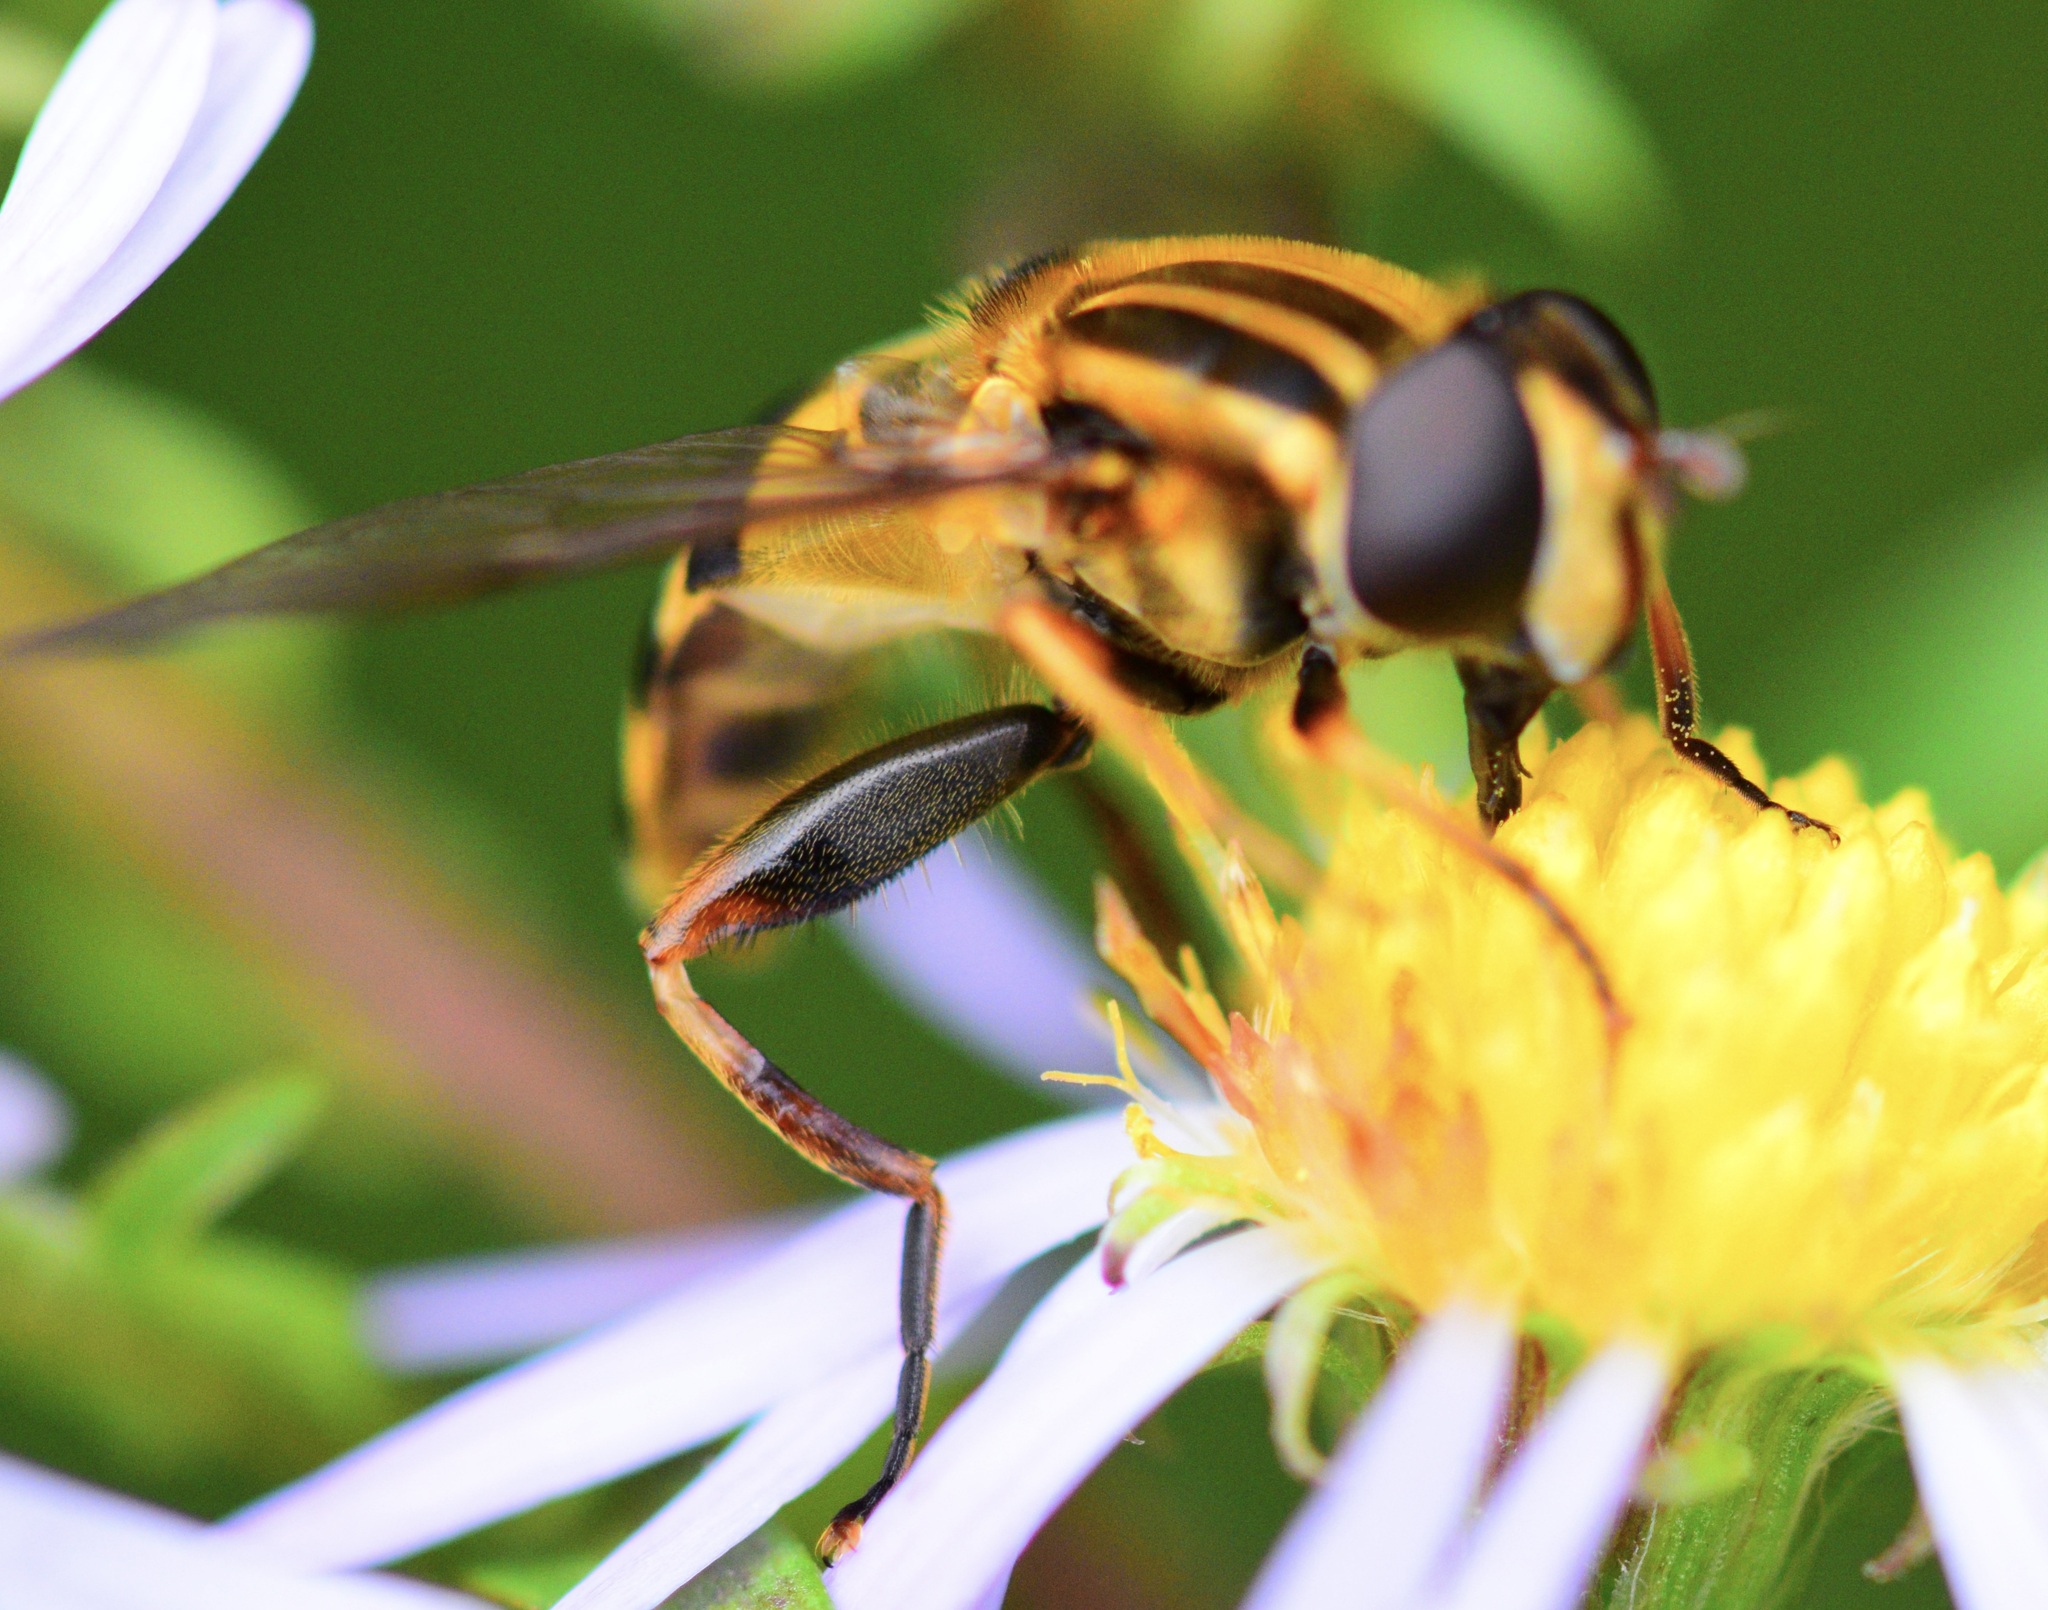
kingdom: Animalia
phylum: Arthropoda
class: Insecta
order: Diptera
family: Syrphidae
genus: Helophilus
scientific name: Helophilus fasciatus
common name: Narrow-headed marsh fly
